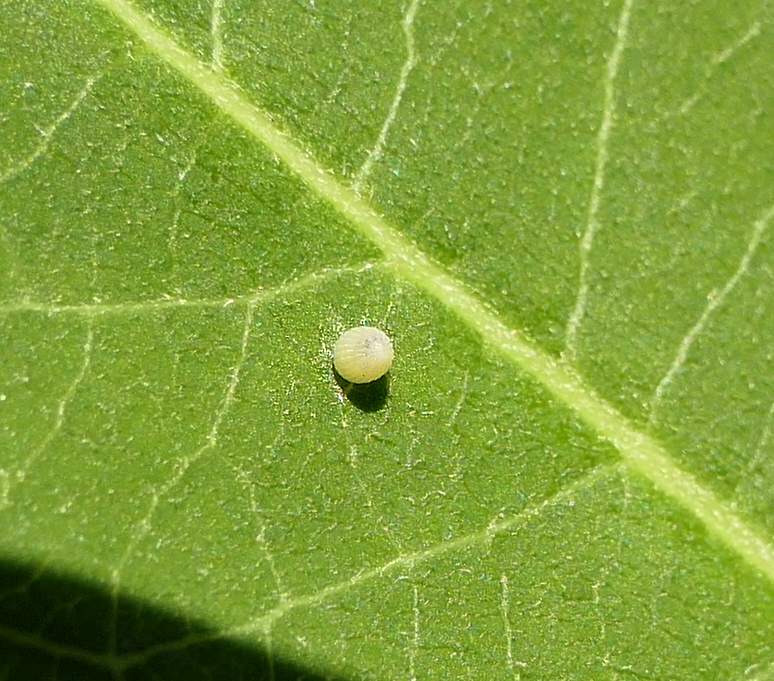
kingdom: Animalia
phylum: Arthropoda
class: Insecta
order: Lepidoptera
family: Nymphalidae
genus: Danaus
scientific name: Danaus plexippus
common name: Monarch
